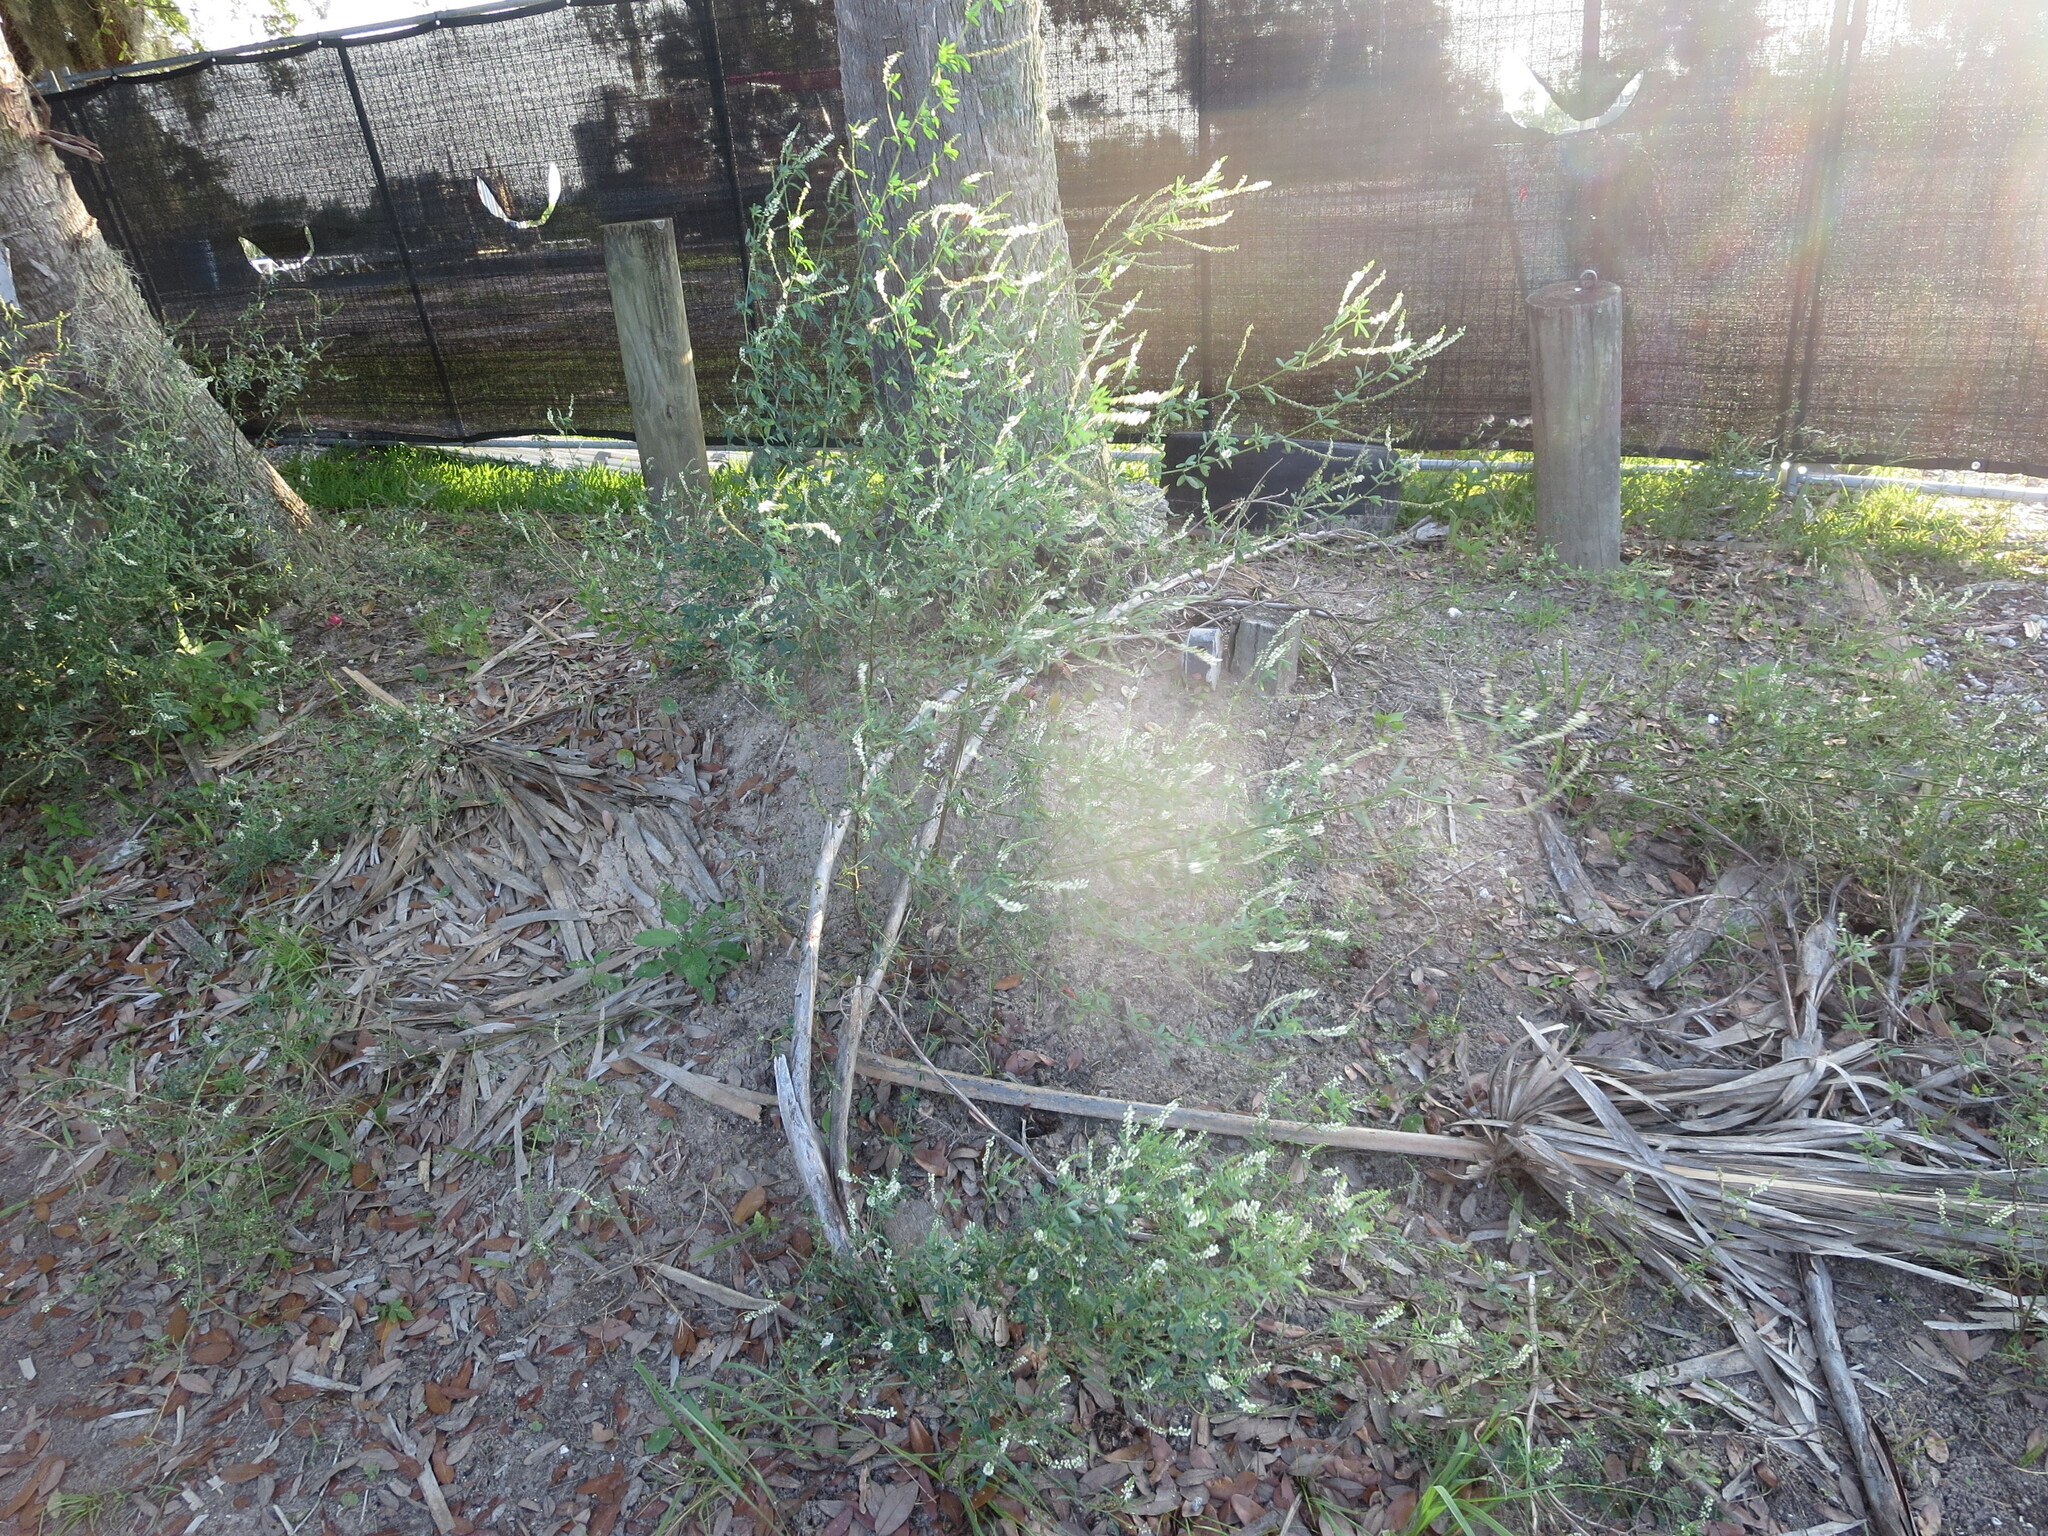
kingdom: Plantae
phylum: Tracheophyta
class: Magnoliopsida
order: Fabales
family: Fabaceae
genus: Melilotus
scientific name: Melilotus albus
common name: White melilot
